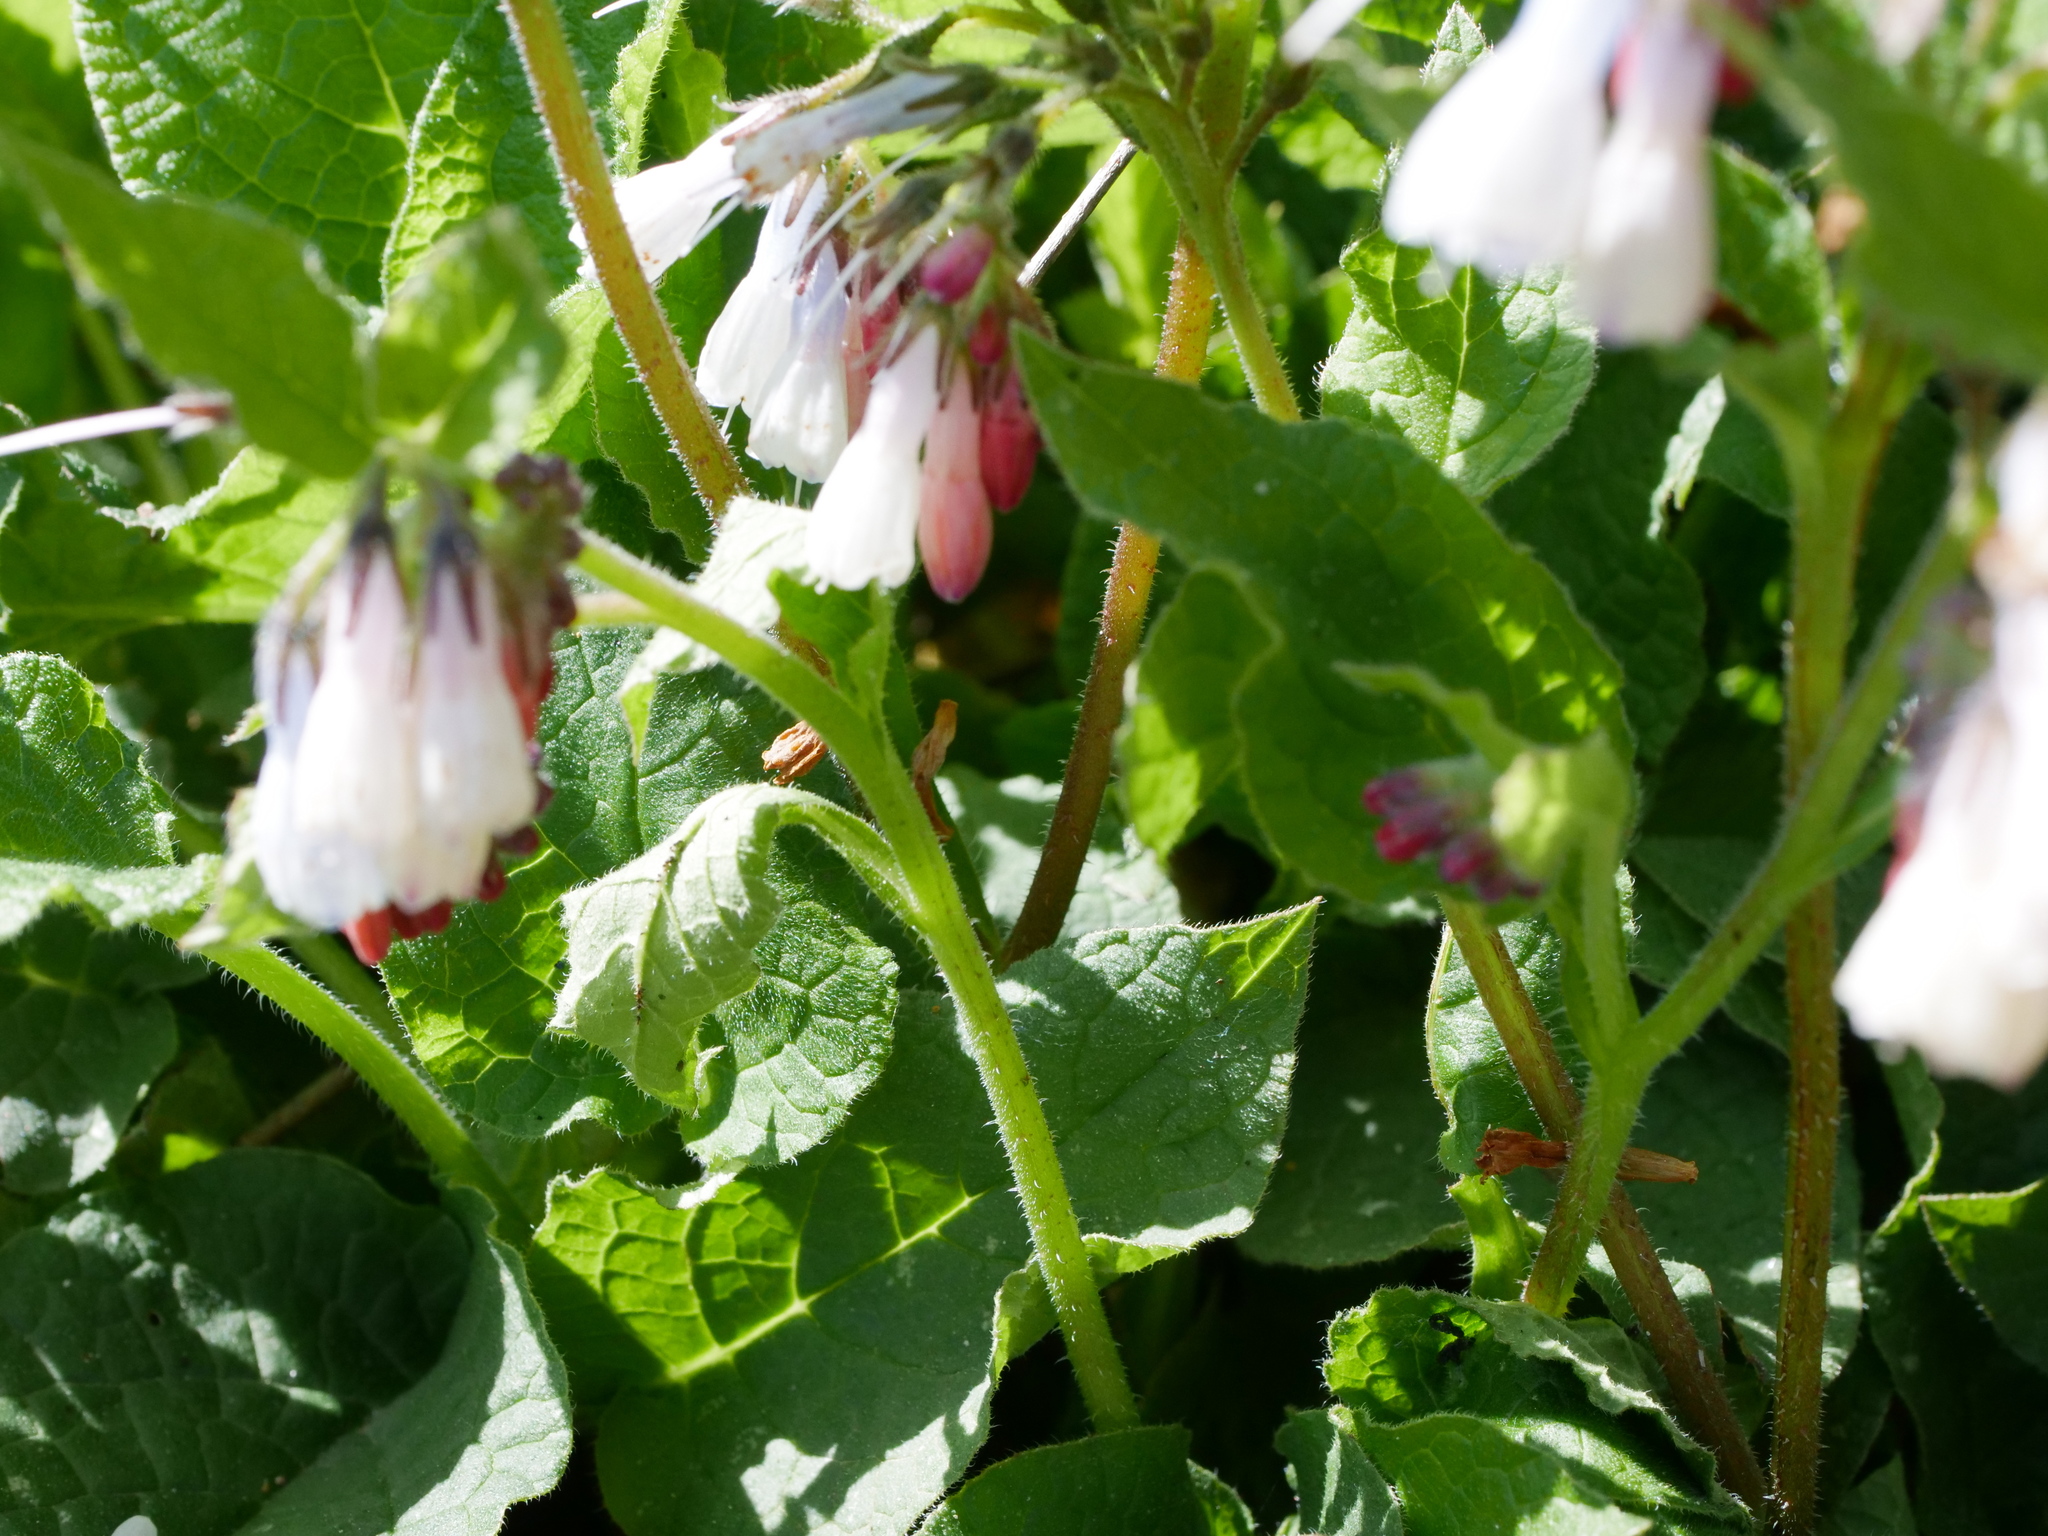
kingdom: Plantae
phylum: Tracheophyta
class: Magnoliopsida
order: Boraginales
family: Boraginaceae
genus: Symphytum
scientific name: Symphytum hidcotense
